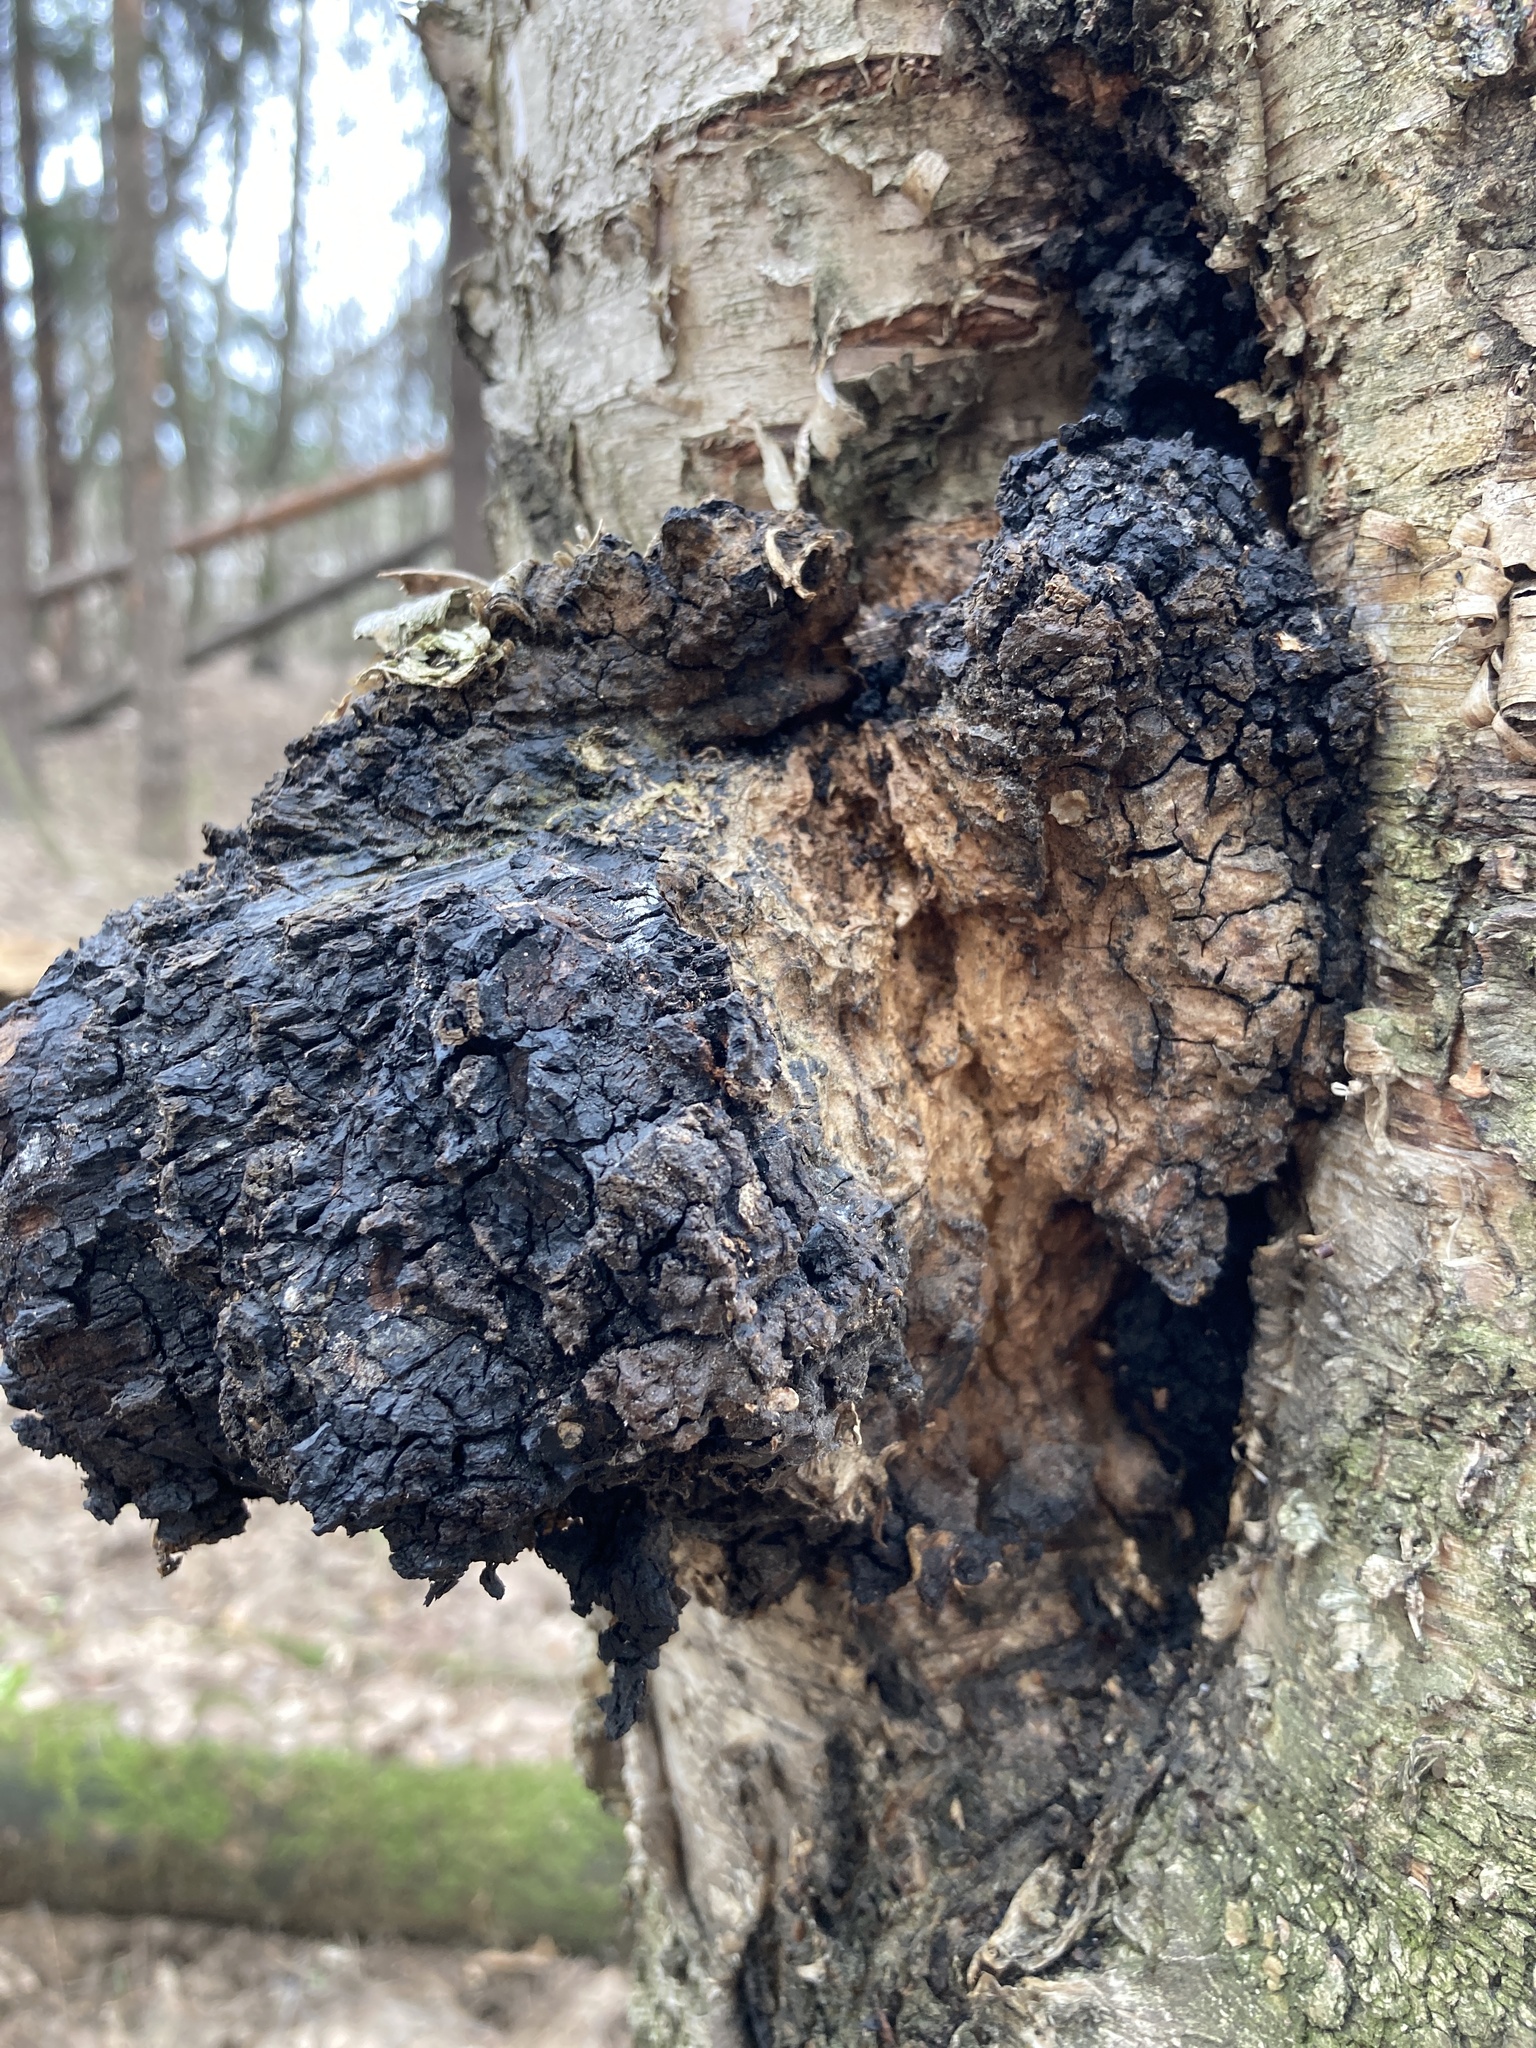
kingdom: Fungi
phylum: Basidiomycota
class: Agaricomycetes
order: Hymenochaetales
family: Hymenochaetaceae
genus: Inonotus
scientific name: Inonotus obliquus
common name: Chaga
